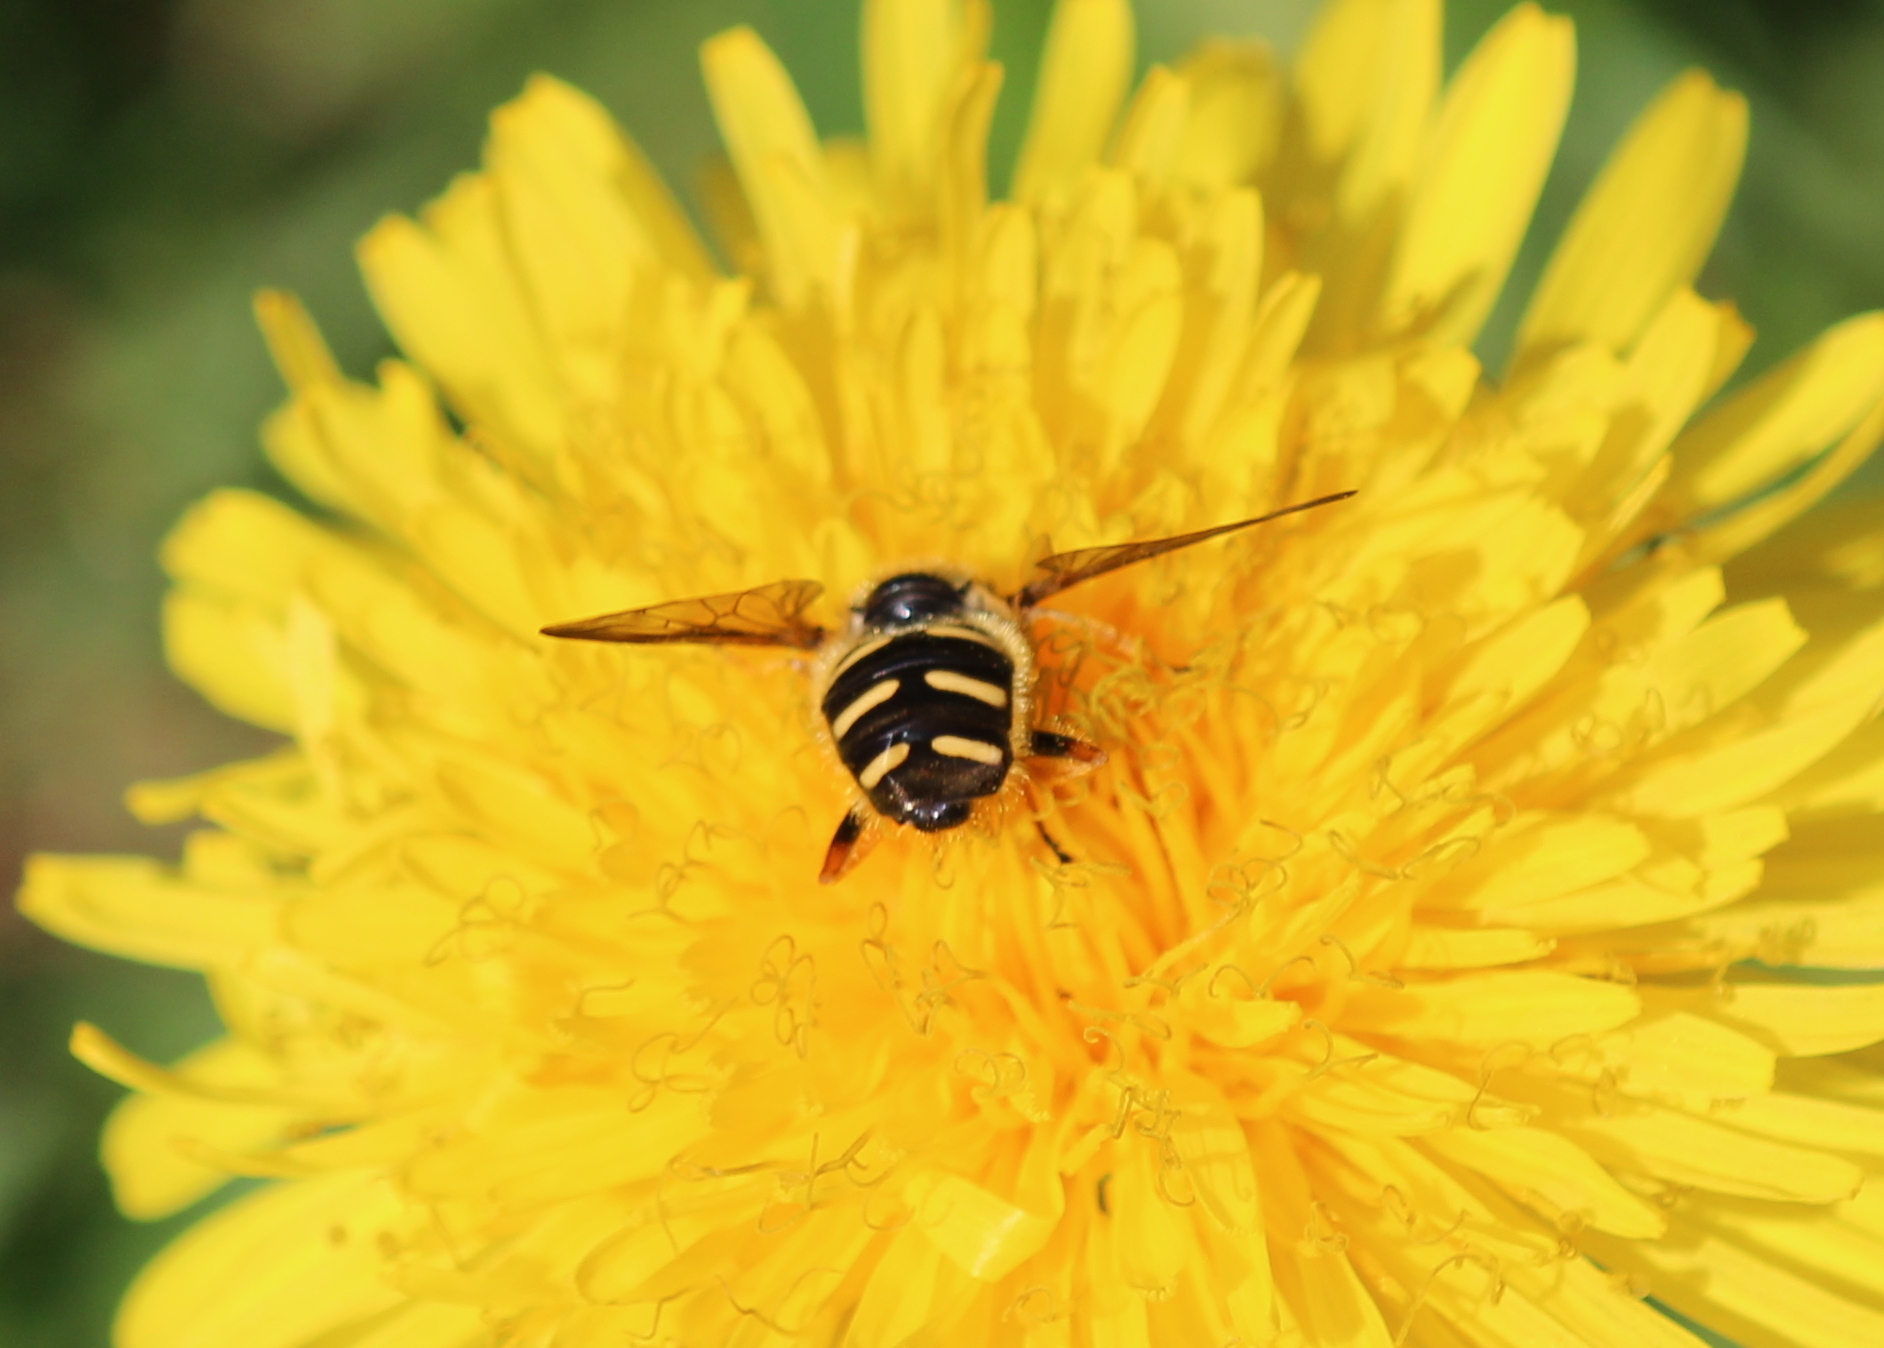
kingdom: Animalia
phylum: Arthropoda
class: Insecta
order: Diptera
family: Syrphidae
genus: Sericomyia
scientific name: Sericomyia chrysotoxoides
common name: Oblique-banded pond fly
